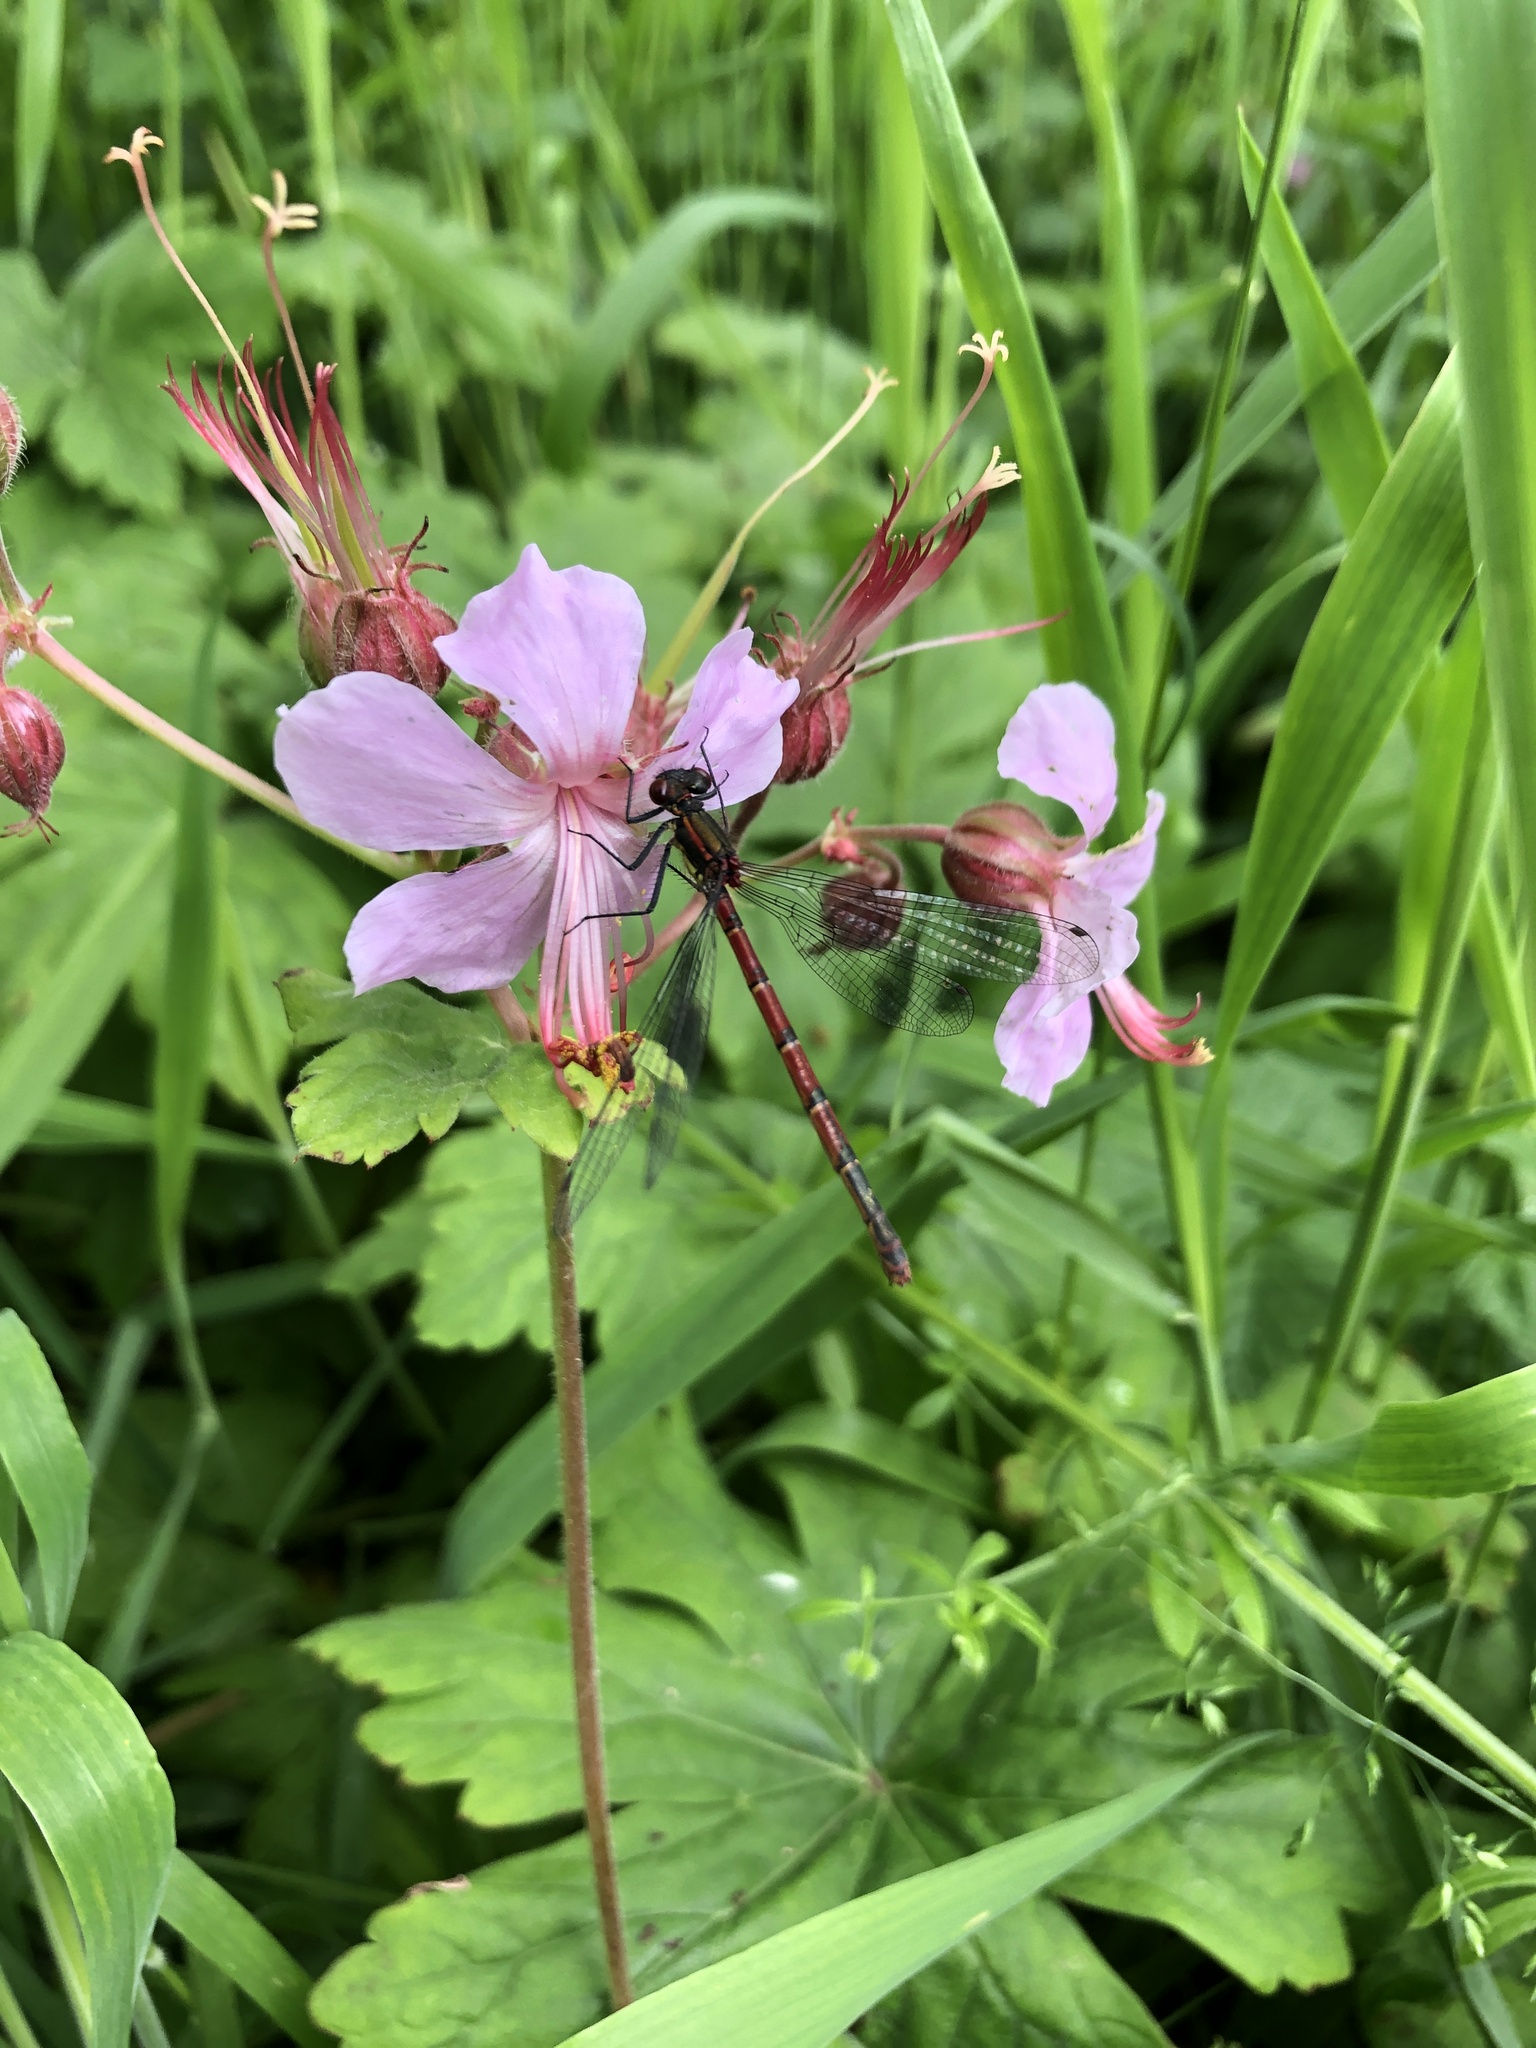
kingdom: Animalia
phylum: Arthropoda
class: Insecta
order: Odonata
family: Coenagrionidae
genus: Pyrrhosoma
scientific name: Pyrrhosoma nymphula
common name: Large red damsel
